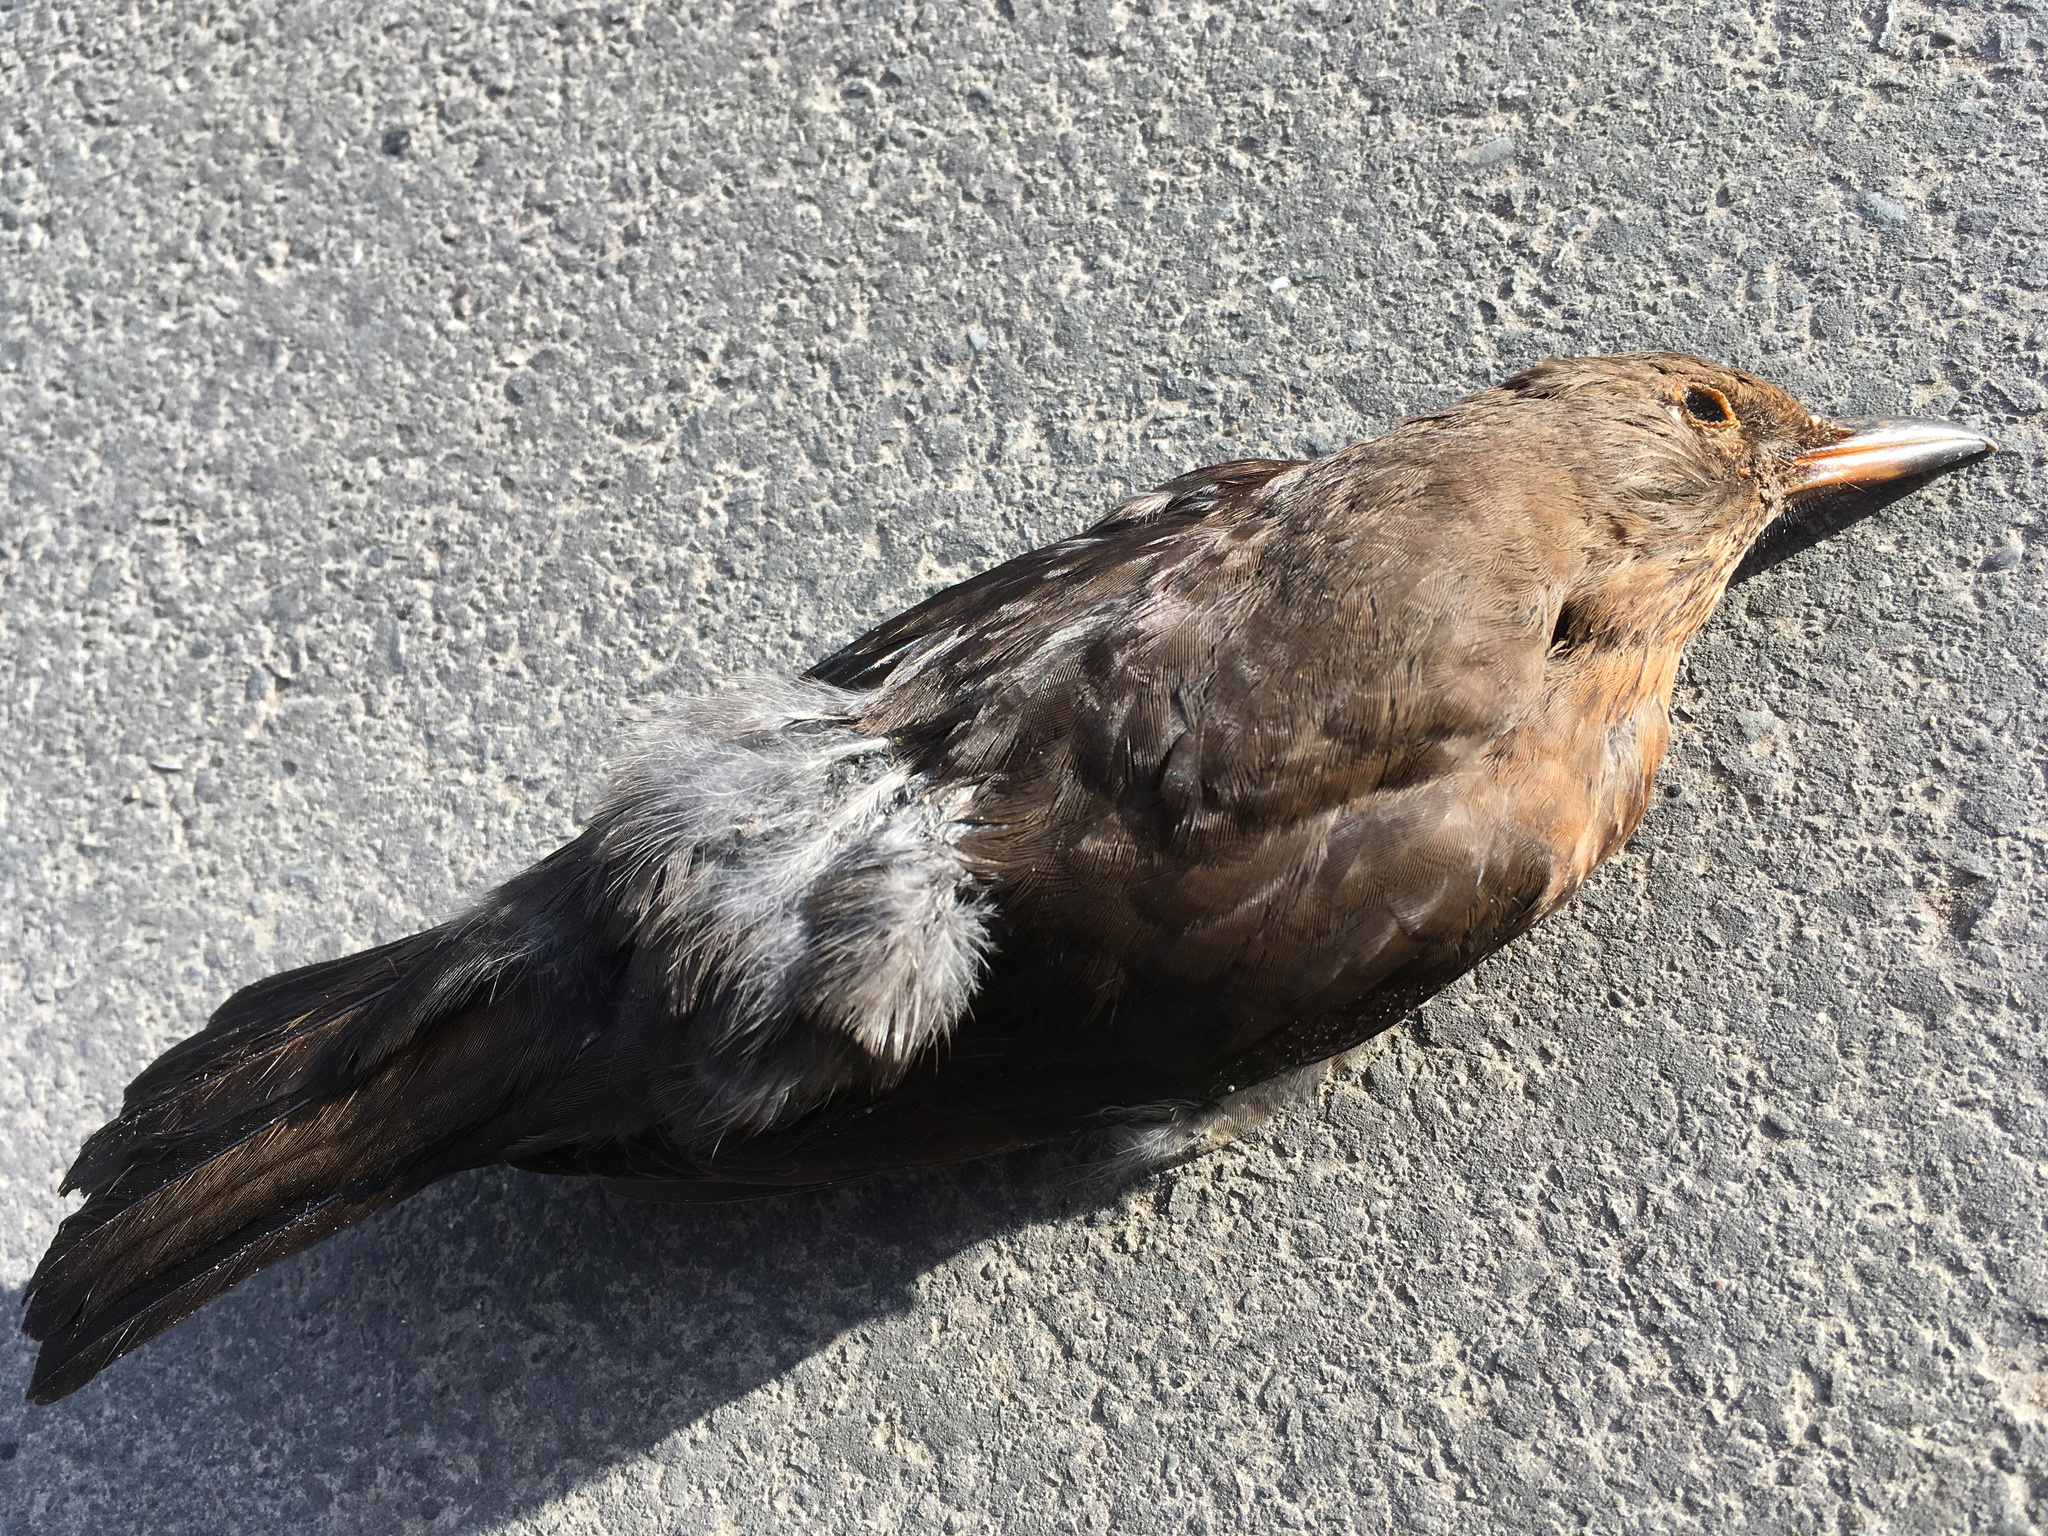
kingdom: Animalia
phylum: Chordata
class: Aves
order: Passeriformes
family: Turdidae
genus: Turdus
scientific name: Turdus merula
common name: Common blackbird
